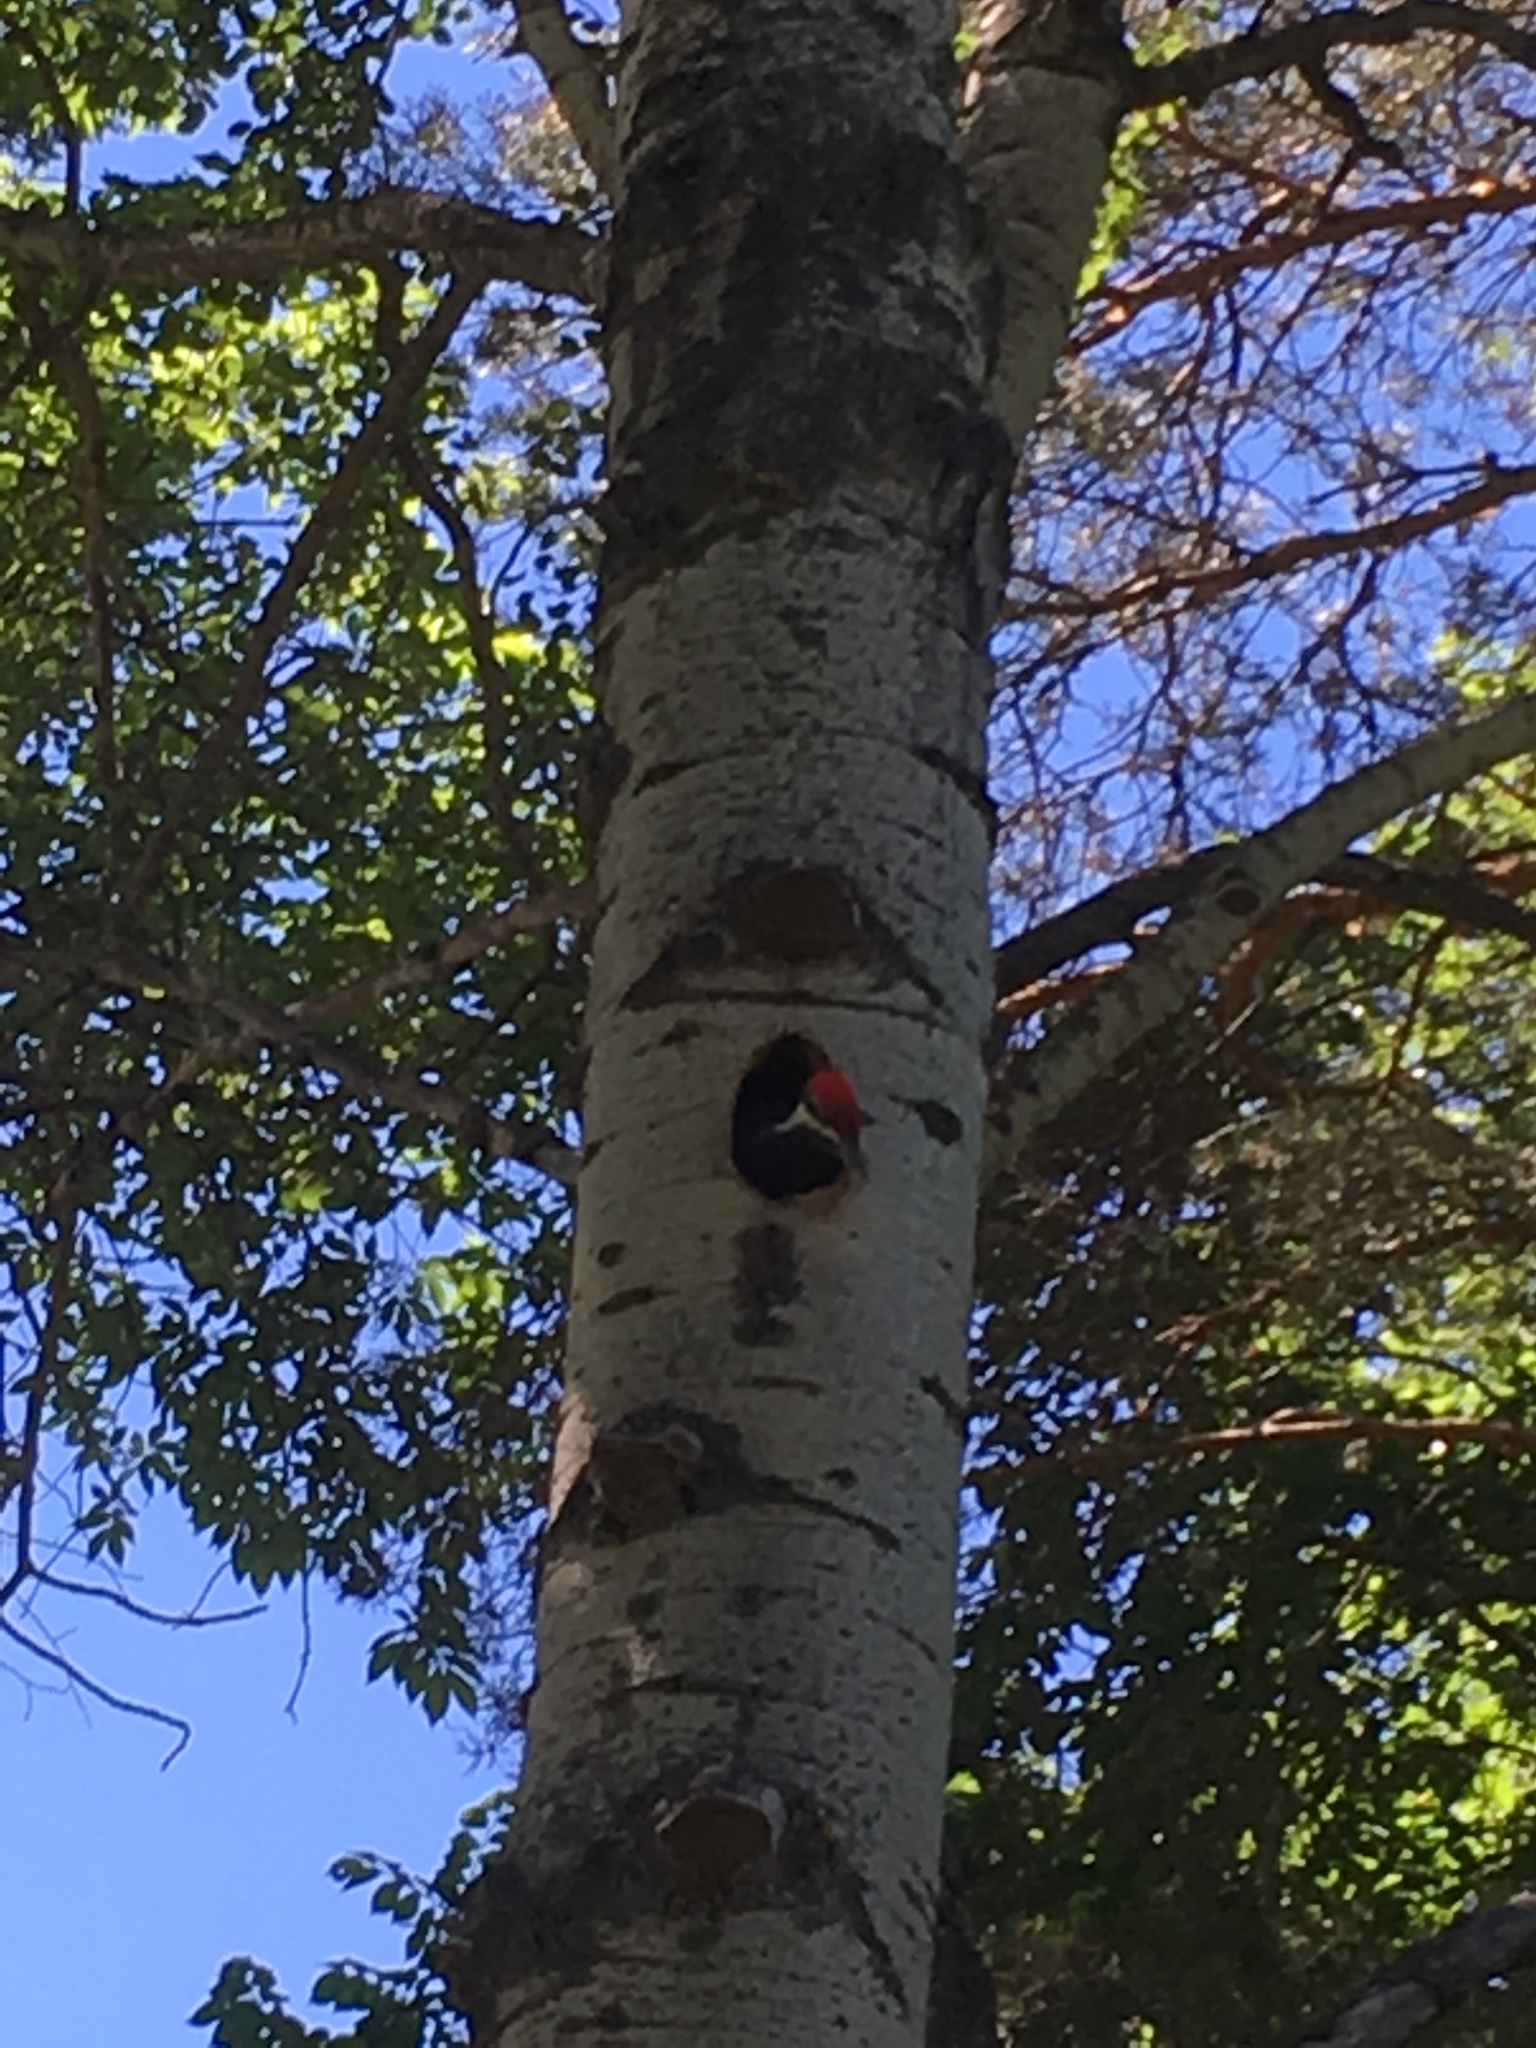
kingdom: Animalia
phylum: Chordata
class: Aves
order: Piciformes
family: Picidae
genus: Dryocopus
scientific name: Dryocopus pileatus
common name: Pileated woodpecker
